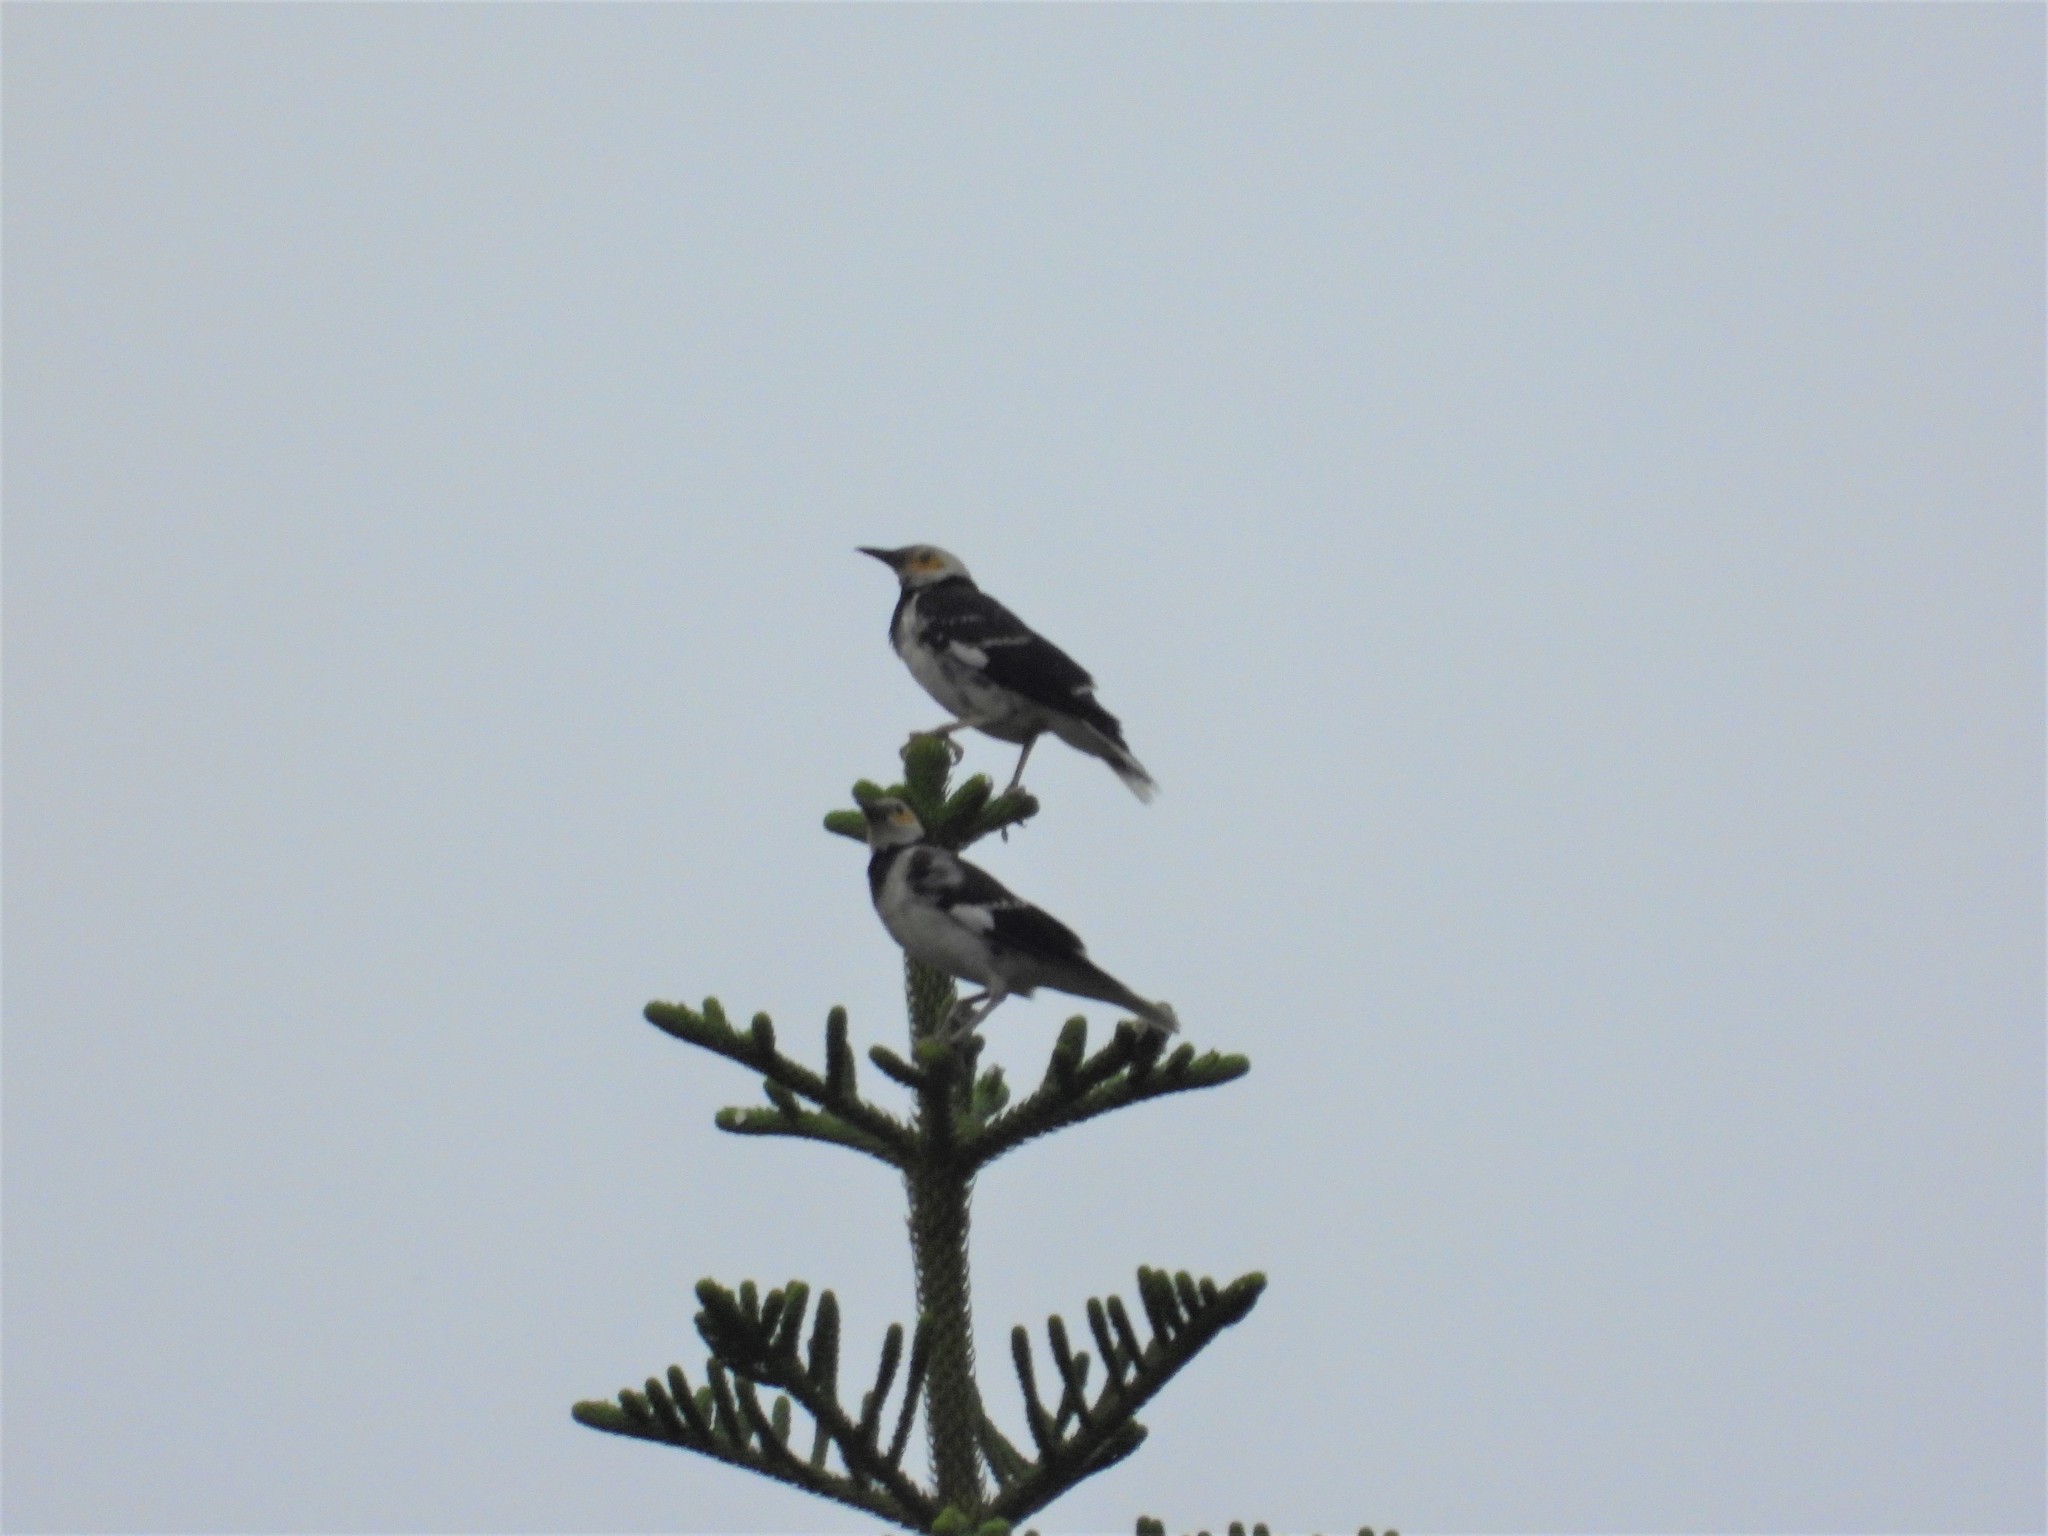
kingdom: Animalia
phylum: Chordata
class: Aves
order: Passeriformes
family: Sturnidae
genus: Gracupica
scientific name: Gracupica nigricollis
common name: Black-collared starling
